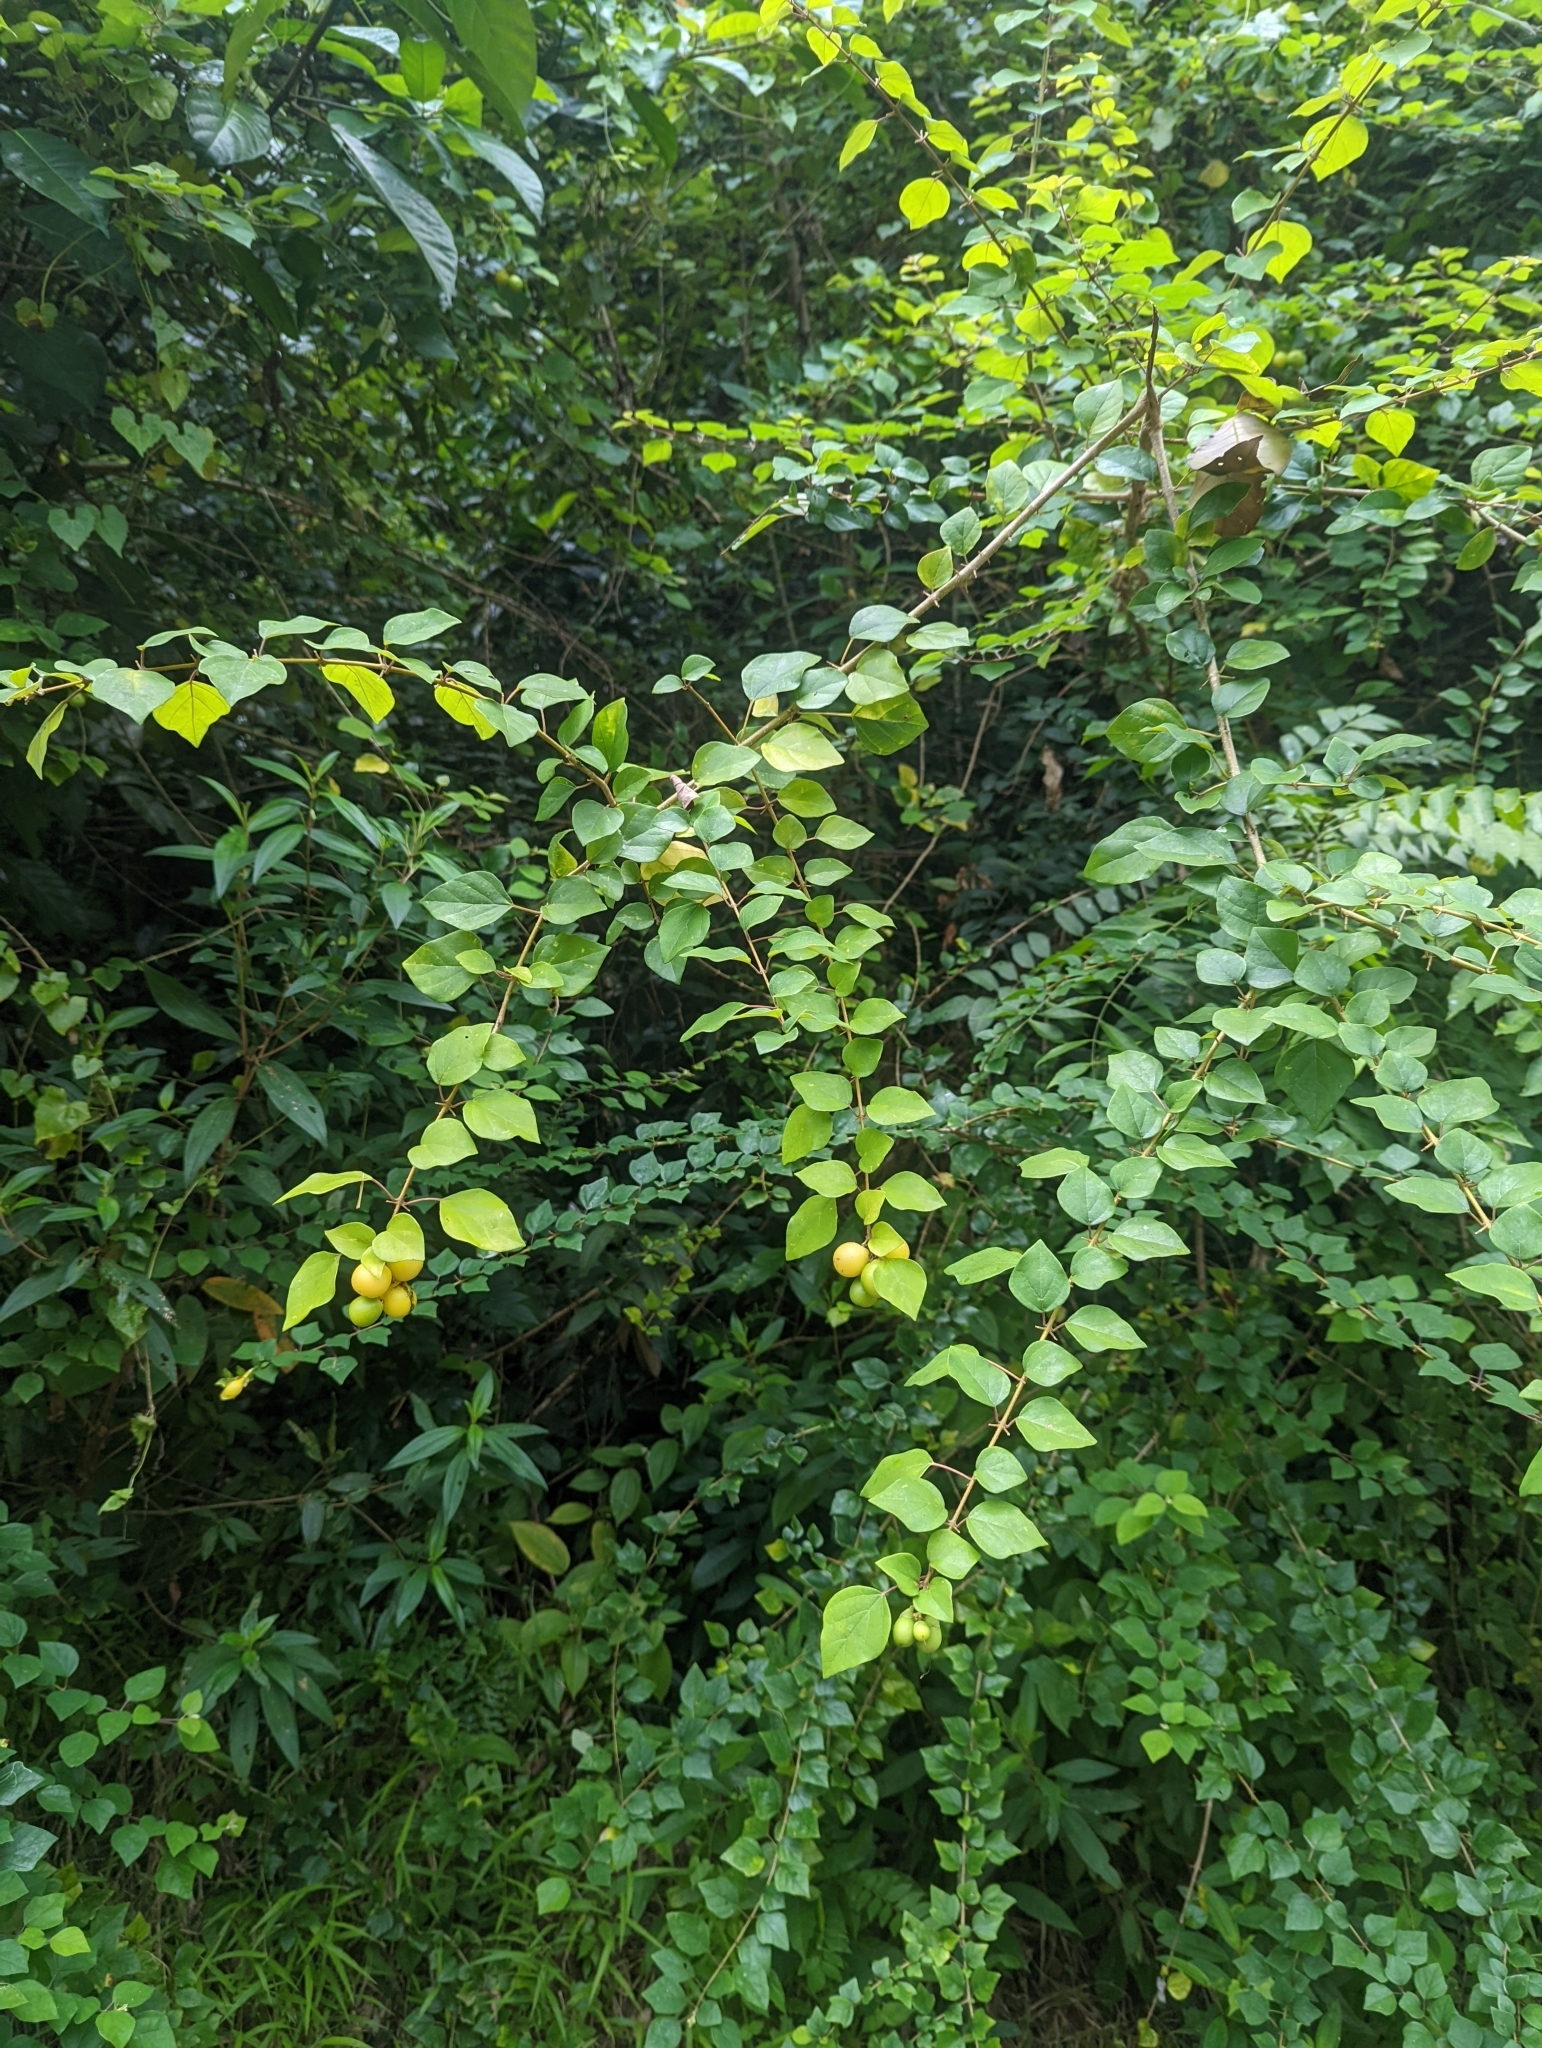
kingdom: Plantae
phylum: Tracheophyta
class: Magnoliopsida
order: Lamiales
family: Lamiaceae
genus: Gmelina
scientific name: Gmelina asiatica
